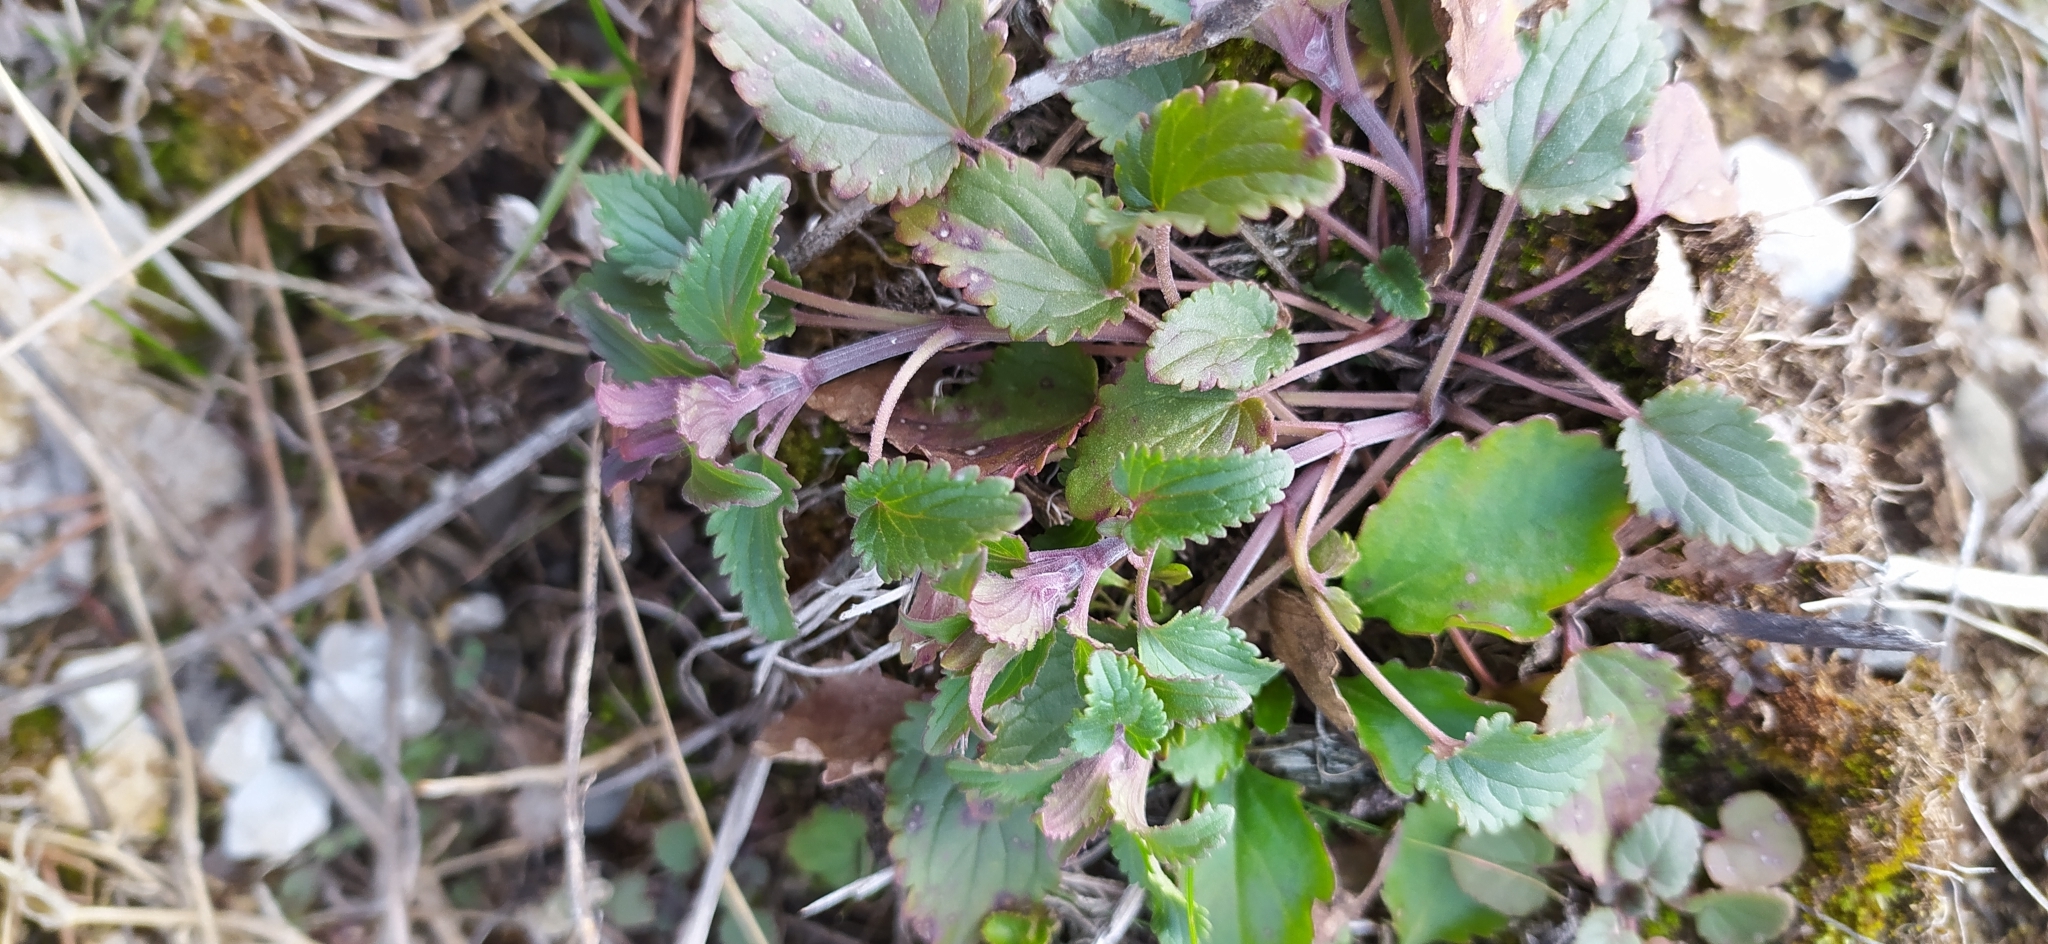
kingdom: Plantae
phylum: Tracheophyta
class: Magnoliopsida
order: Lamiales
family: Lamiaceae
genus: Dracocephalum
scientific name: Dracocephalum thymiflorum
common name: Thymeleaf dragonhead
